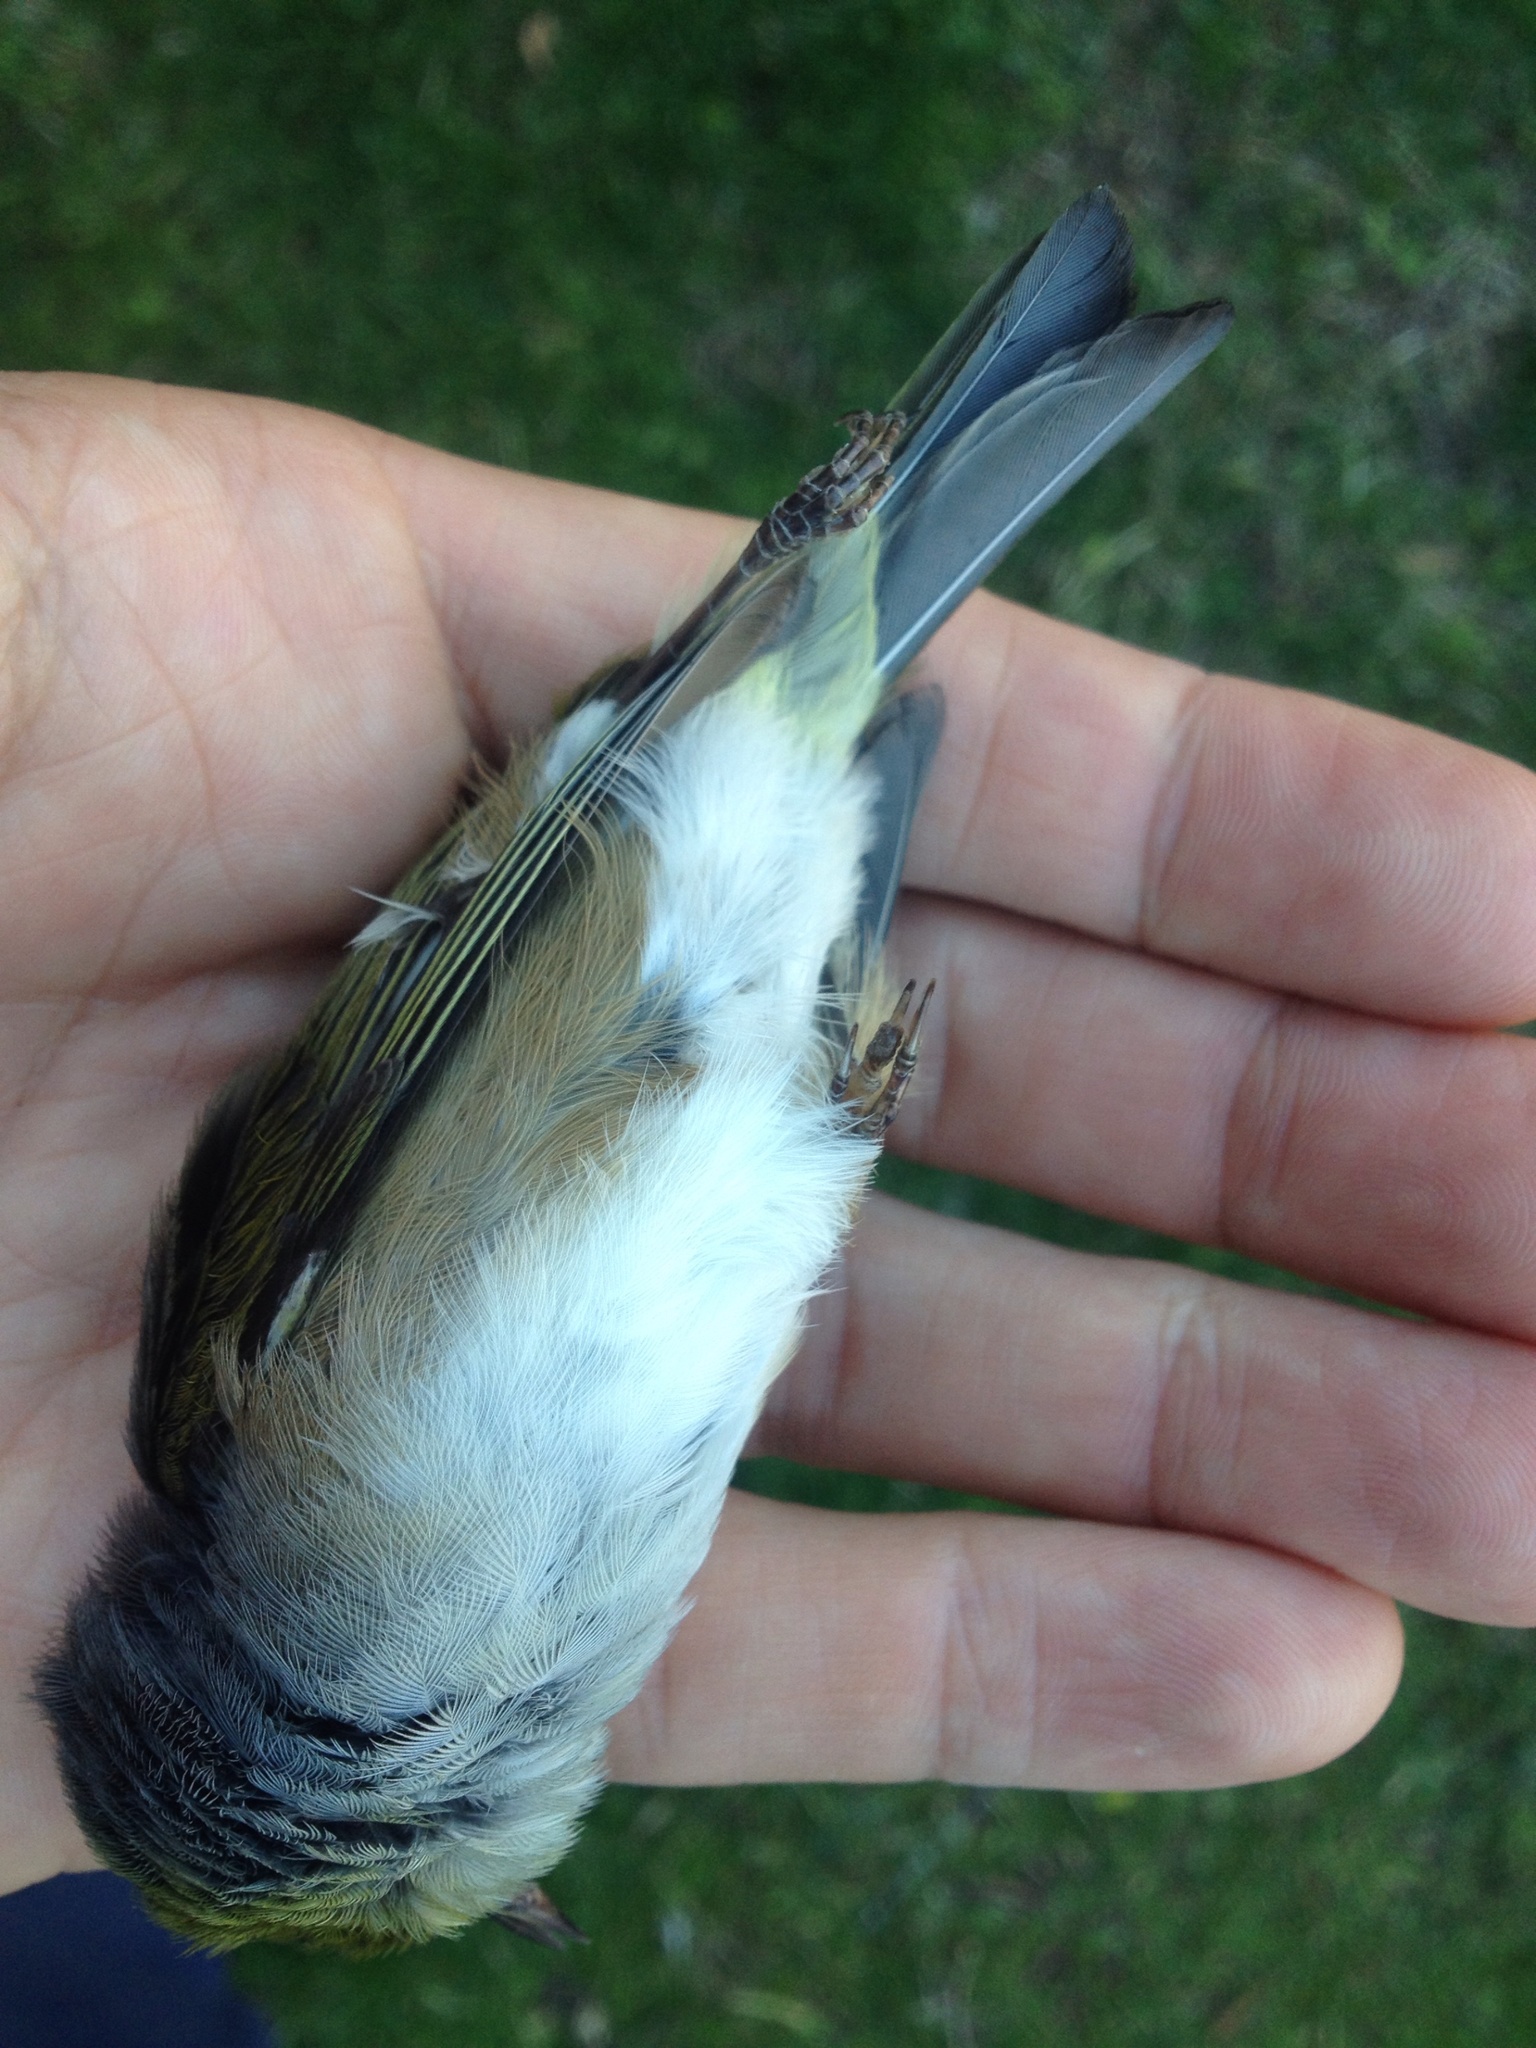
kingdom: Animalia
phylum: Chordata
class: Aves
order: Passeriformes
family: Zosteropidae
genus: Zosterops
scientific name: Zosterops lateralis
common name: Silvereye
